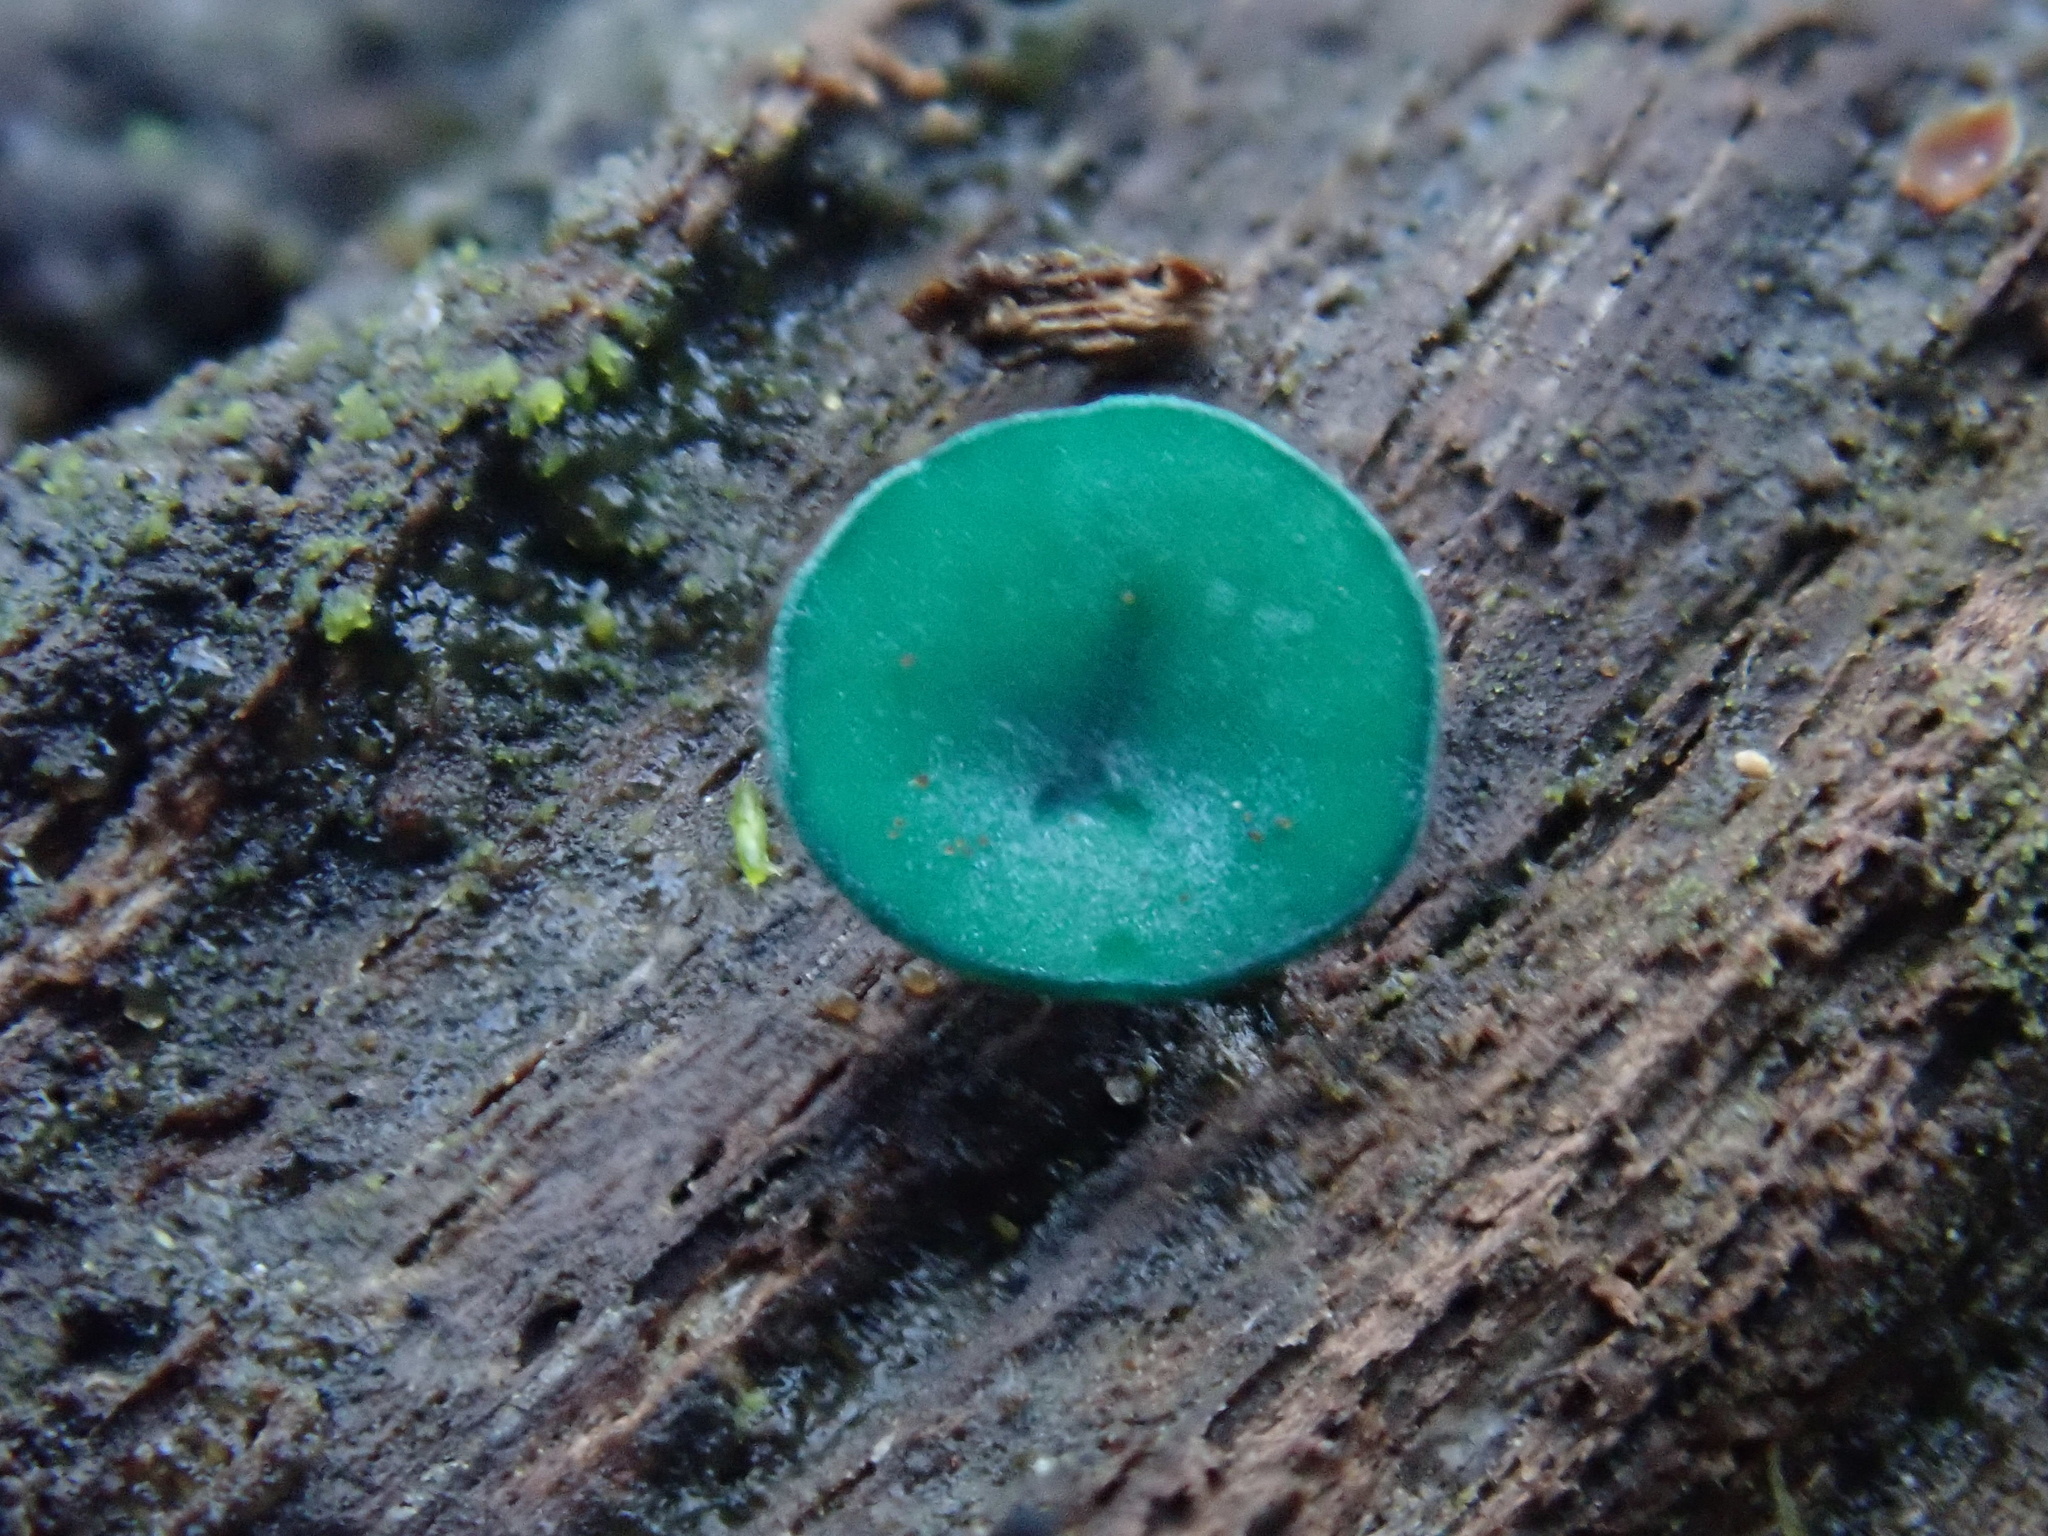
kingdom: Fungi
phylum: Ascomycota
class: Leotiomycetes
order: Helotiales
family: Chlorociboriaceae
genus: Chlorociboria
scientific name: Chlorociboria
